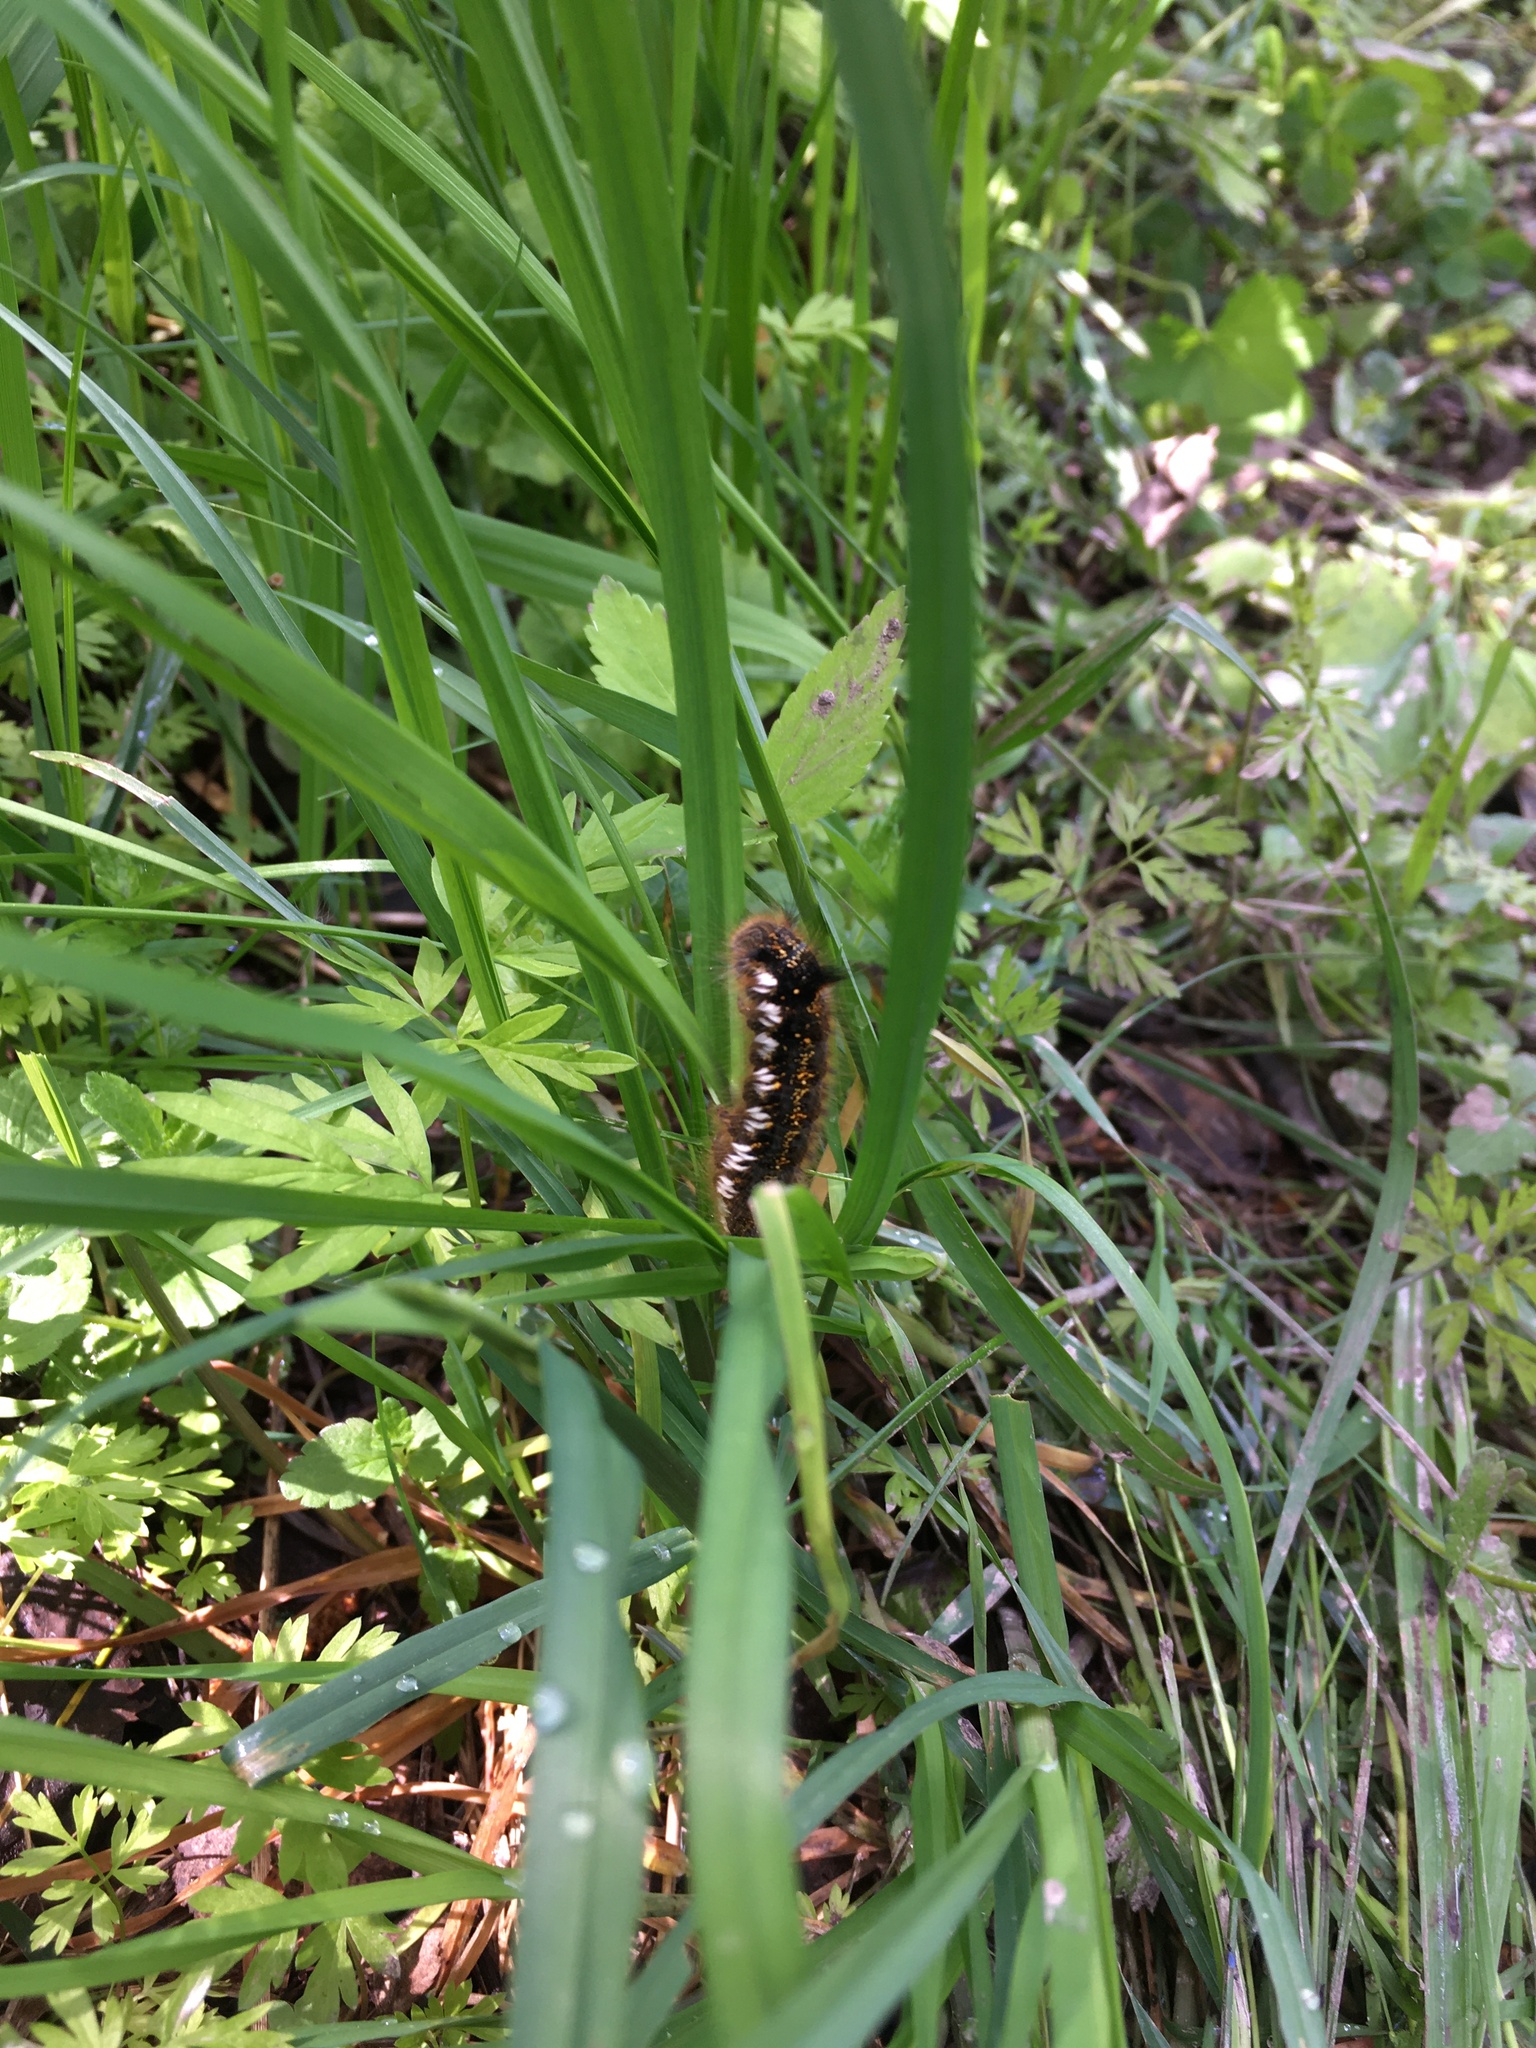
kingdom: Animalia
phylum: Arthropoda
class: Insecta
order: Lepidoptera
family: Lasiocampidae
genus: Euthrix
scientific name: Euthrix potatoria
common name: Drinker
